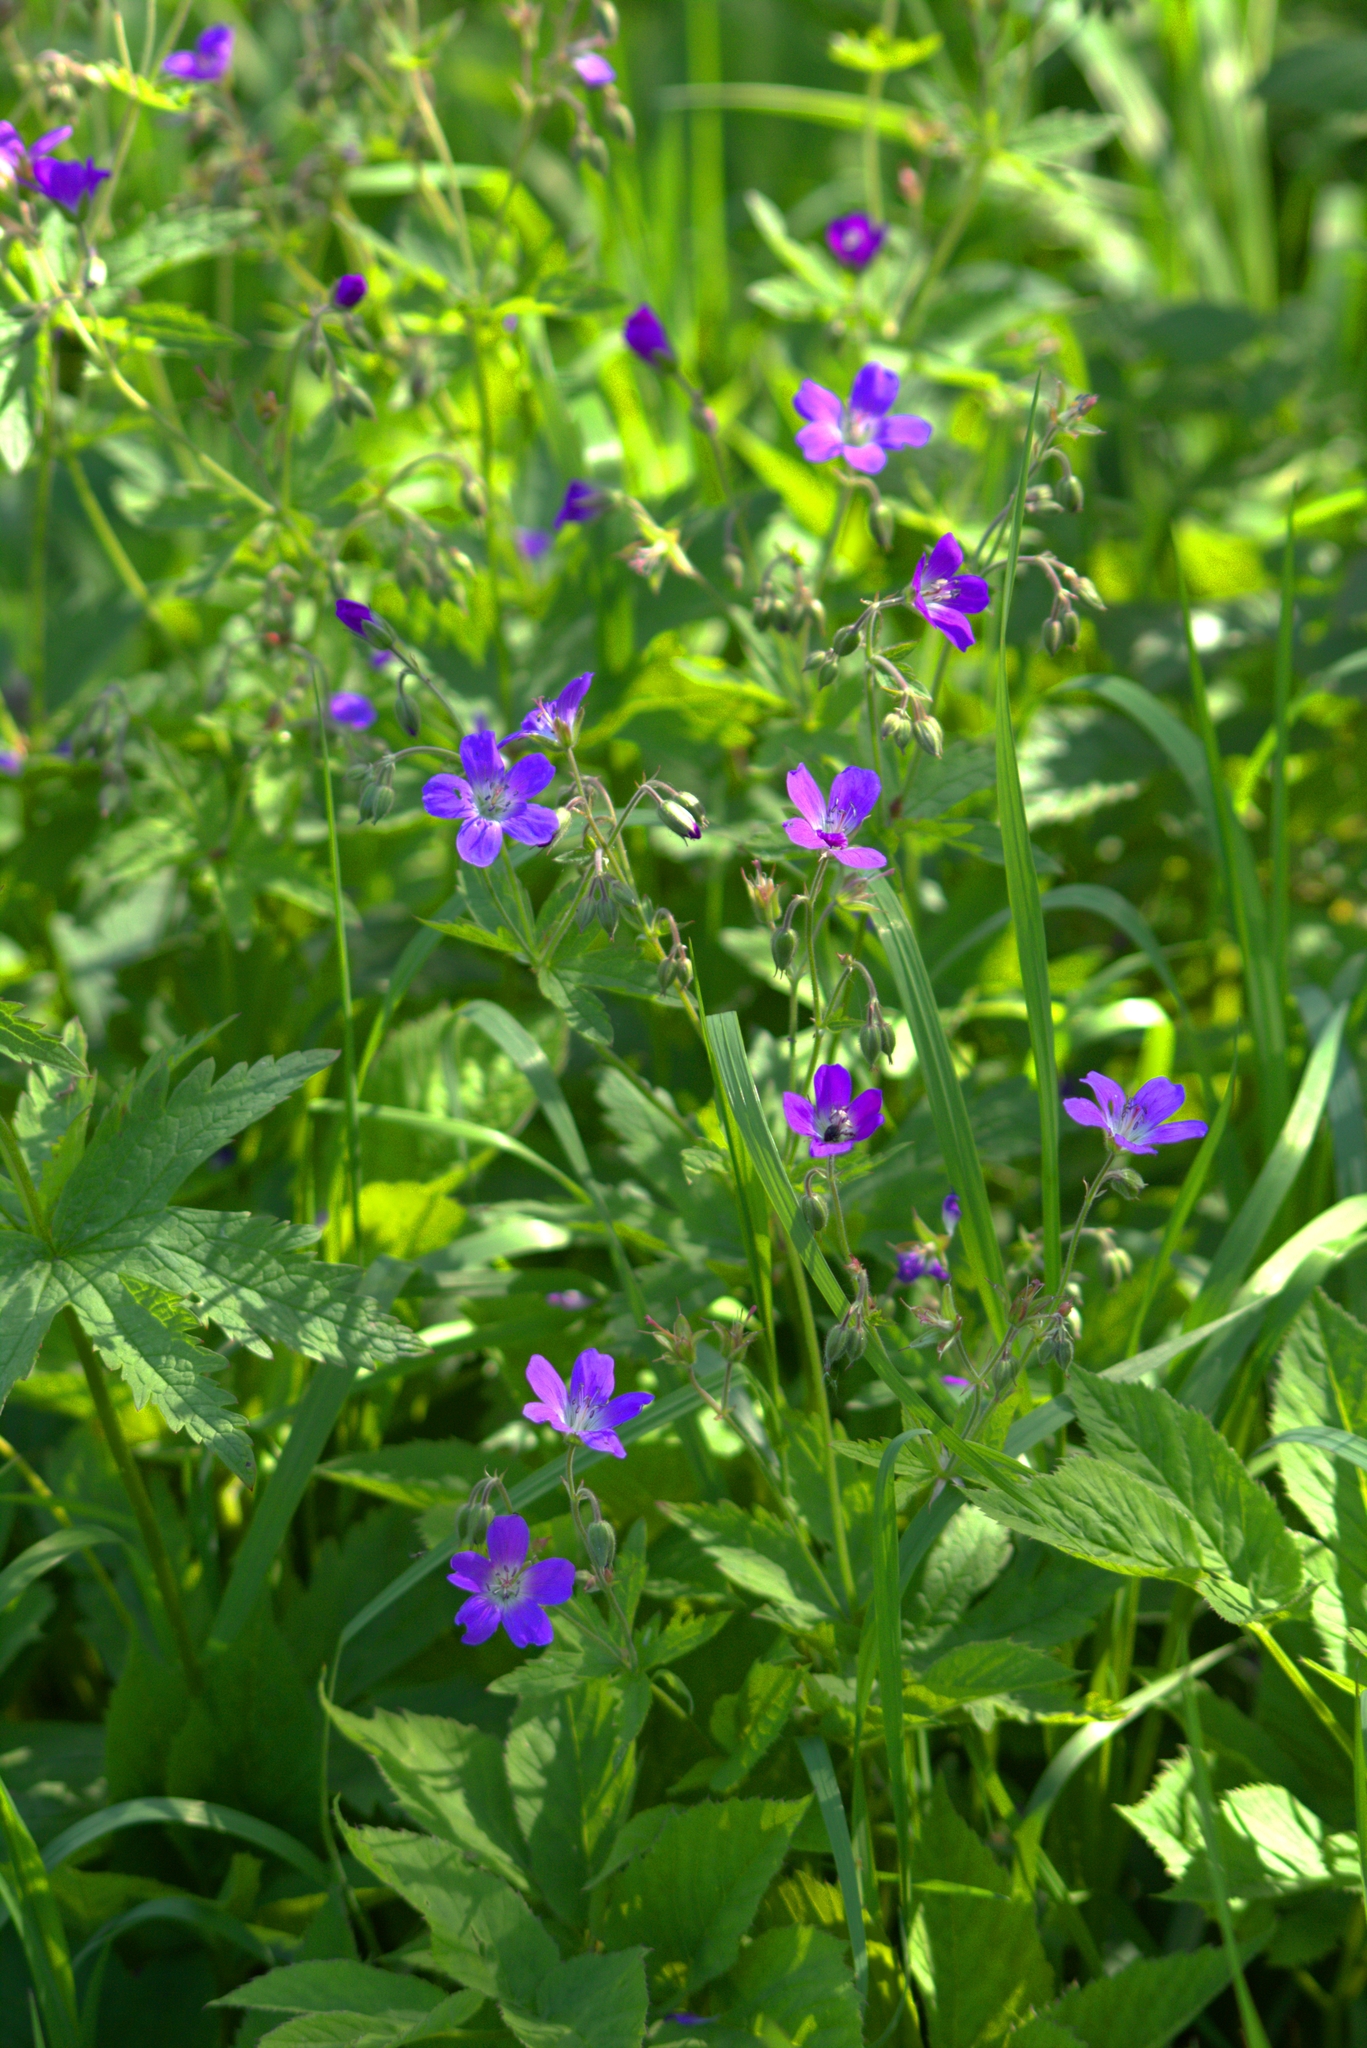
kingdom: Plantae
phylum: Tracheophyta
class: Magnoliopsida
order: Geraniales
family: Geraniaceae
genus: Geranium
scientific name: Geranium sylvaticum
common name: Wood crane's-bill
